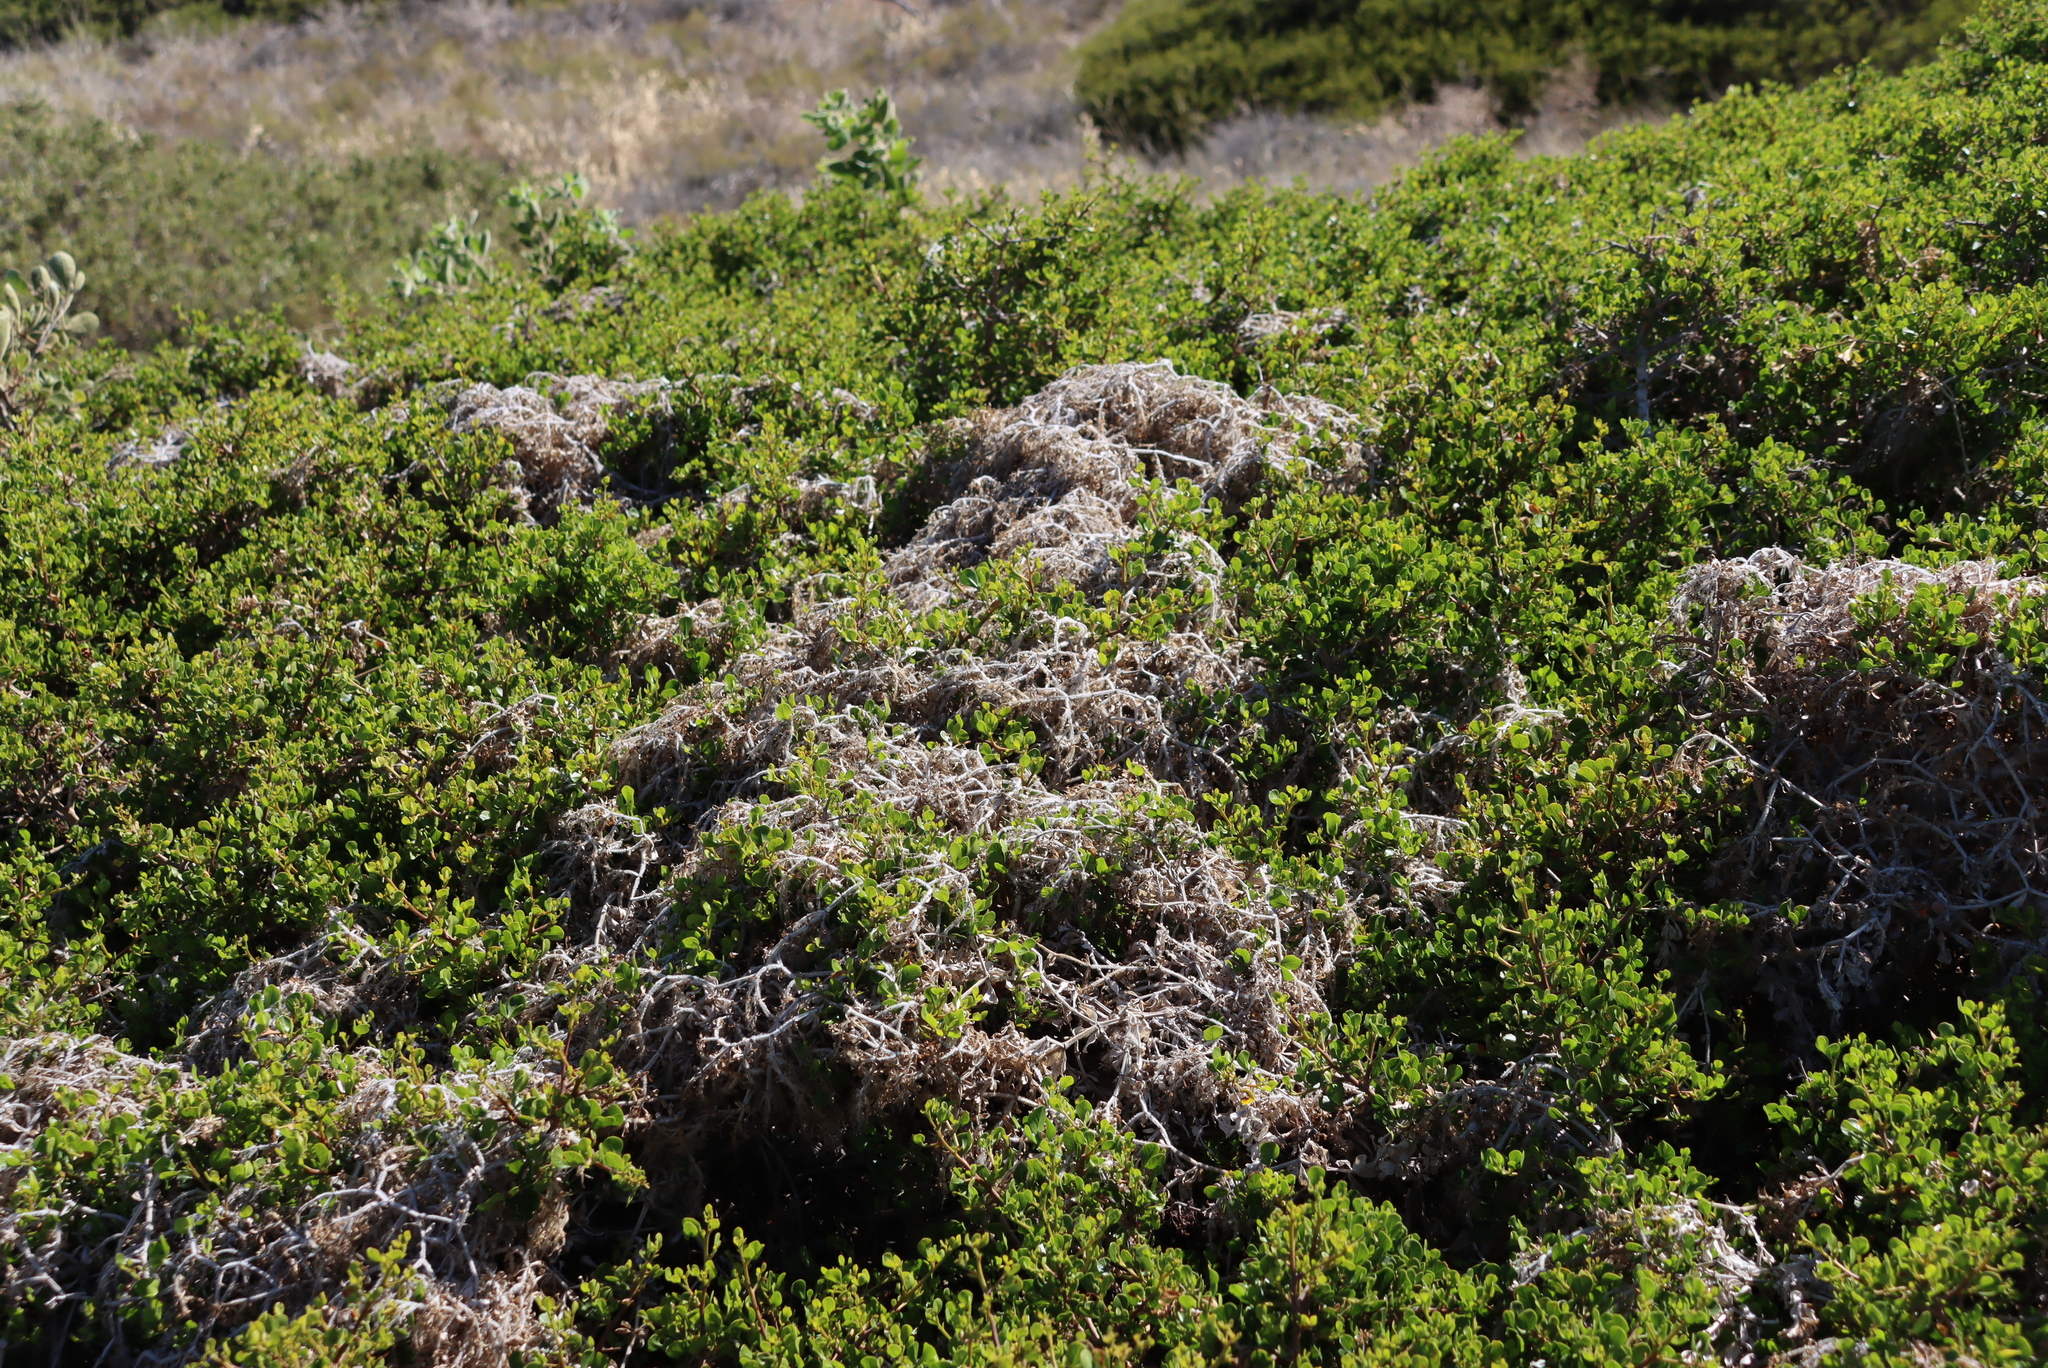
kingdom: Plantae
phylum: Tracheophyta
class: Magnoliopsida
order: Gentianales
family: Rubiaceae
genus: Galium
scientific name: Galium tomentosum
